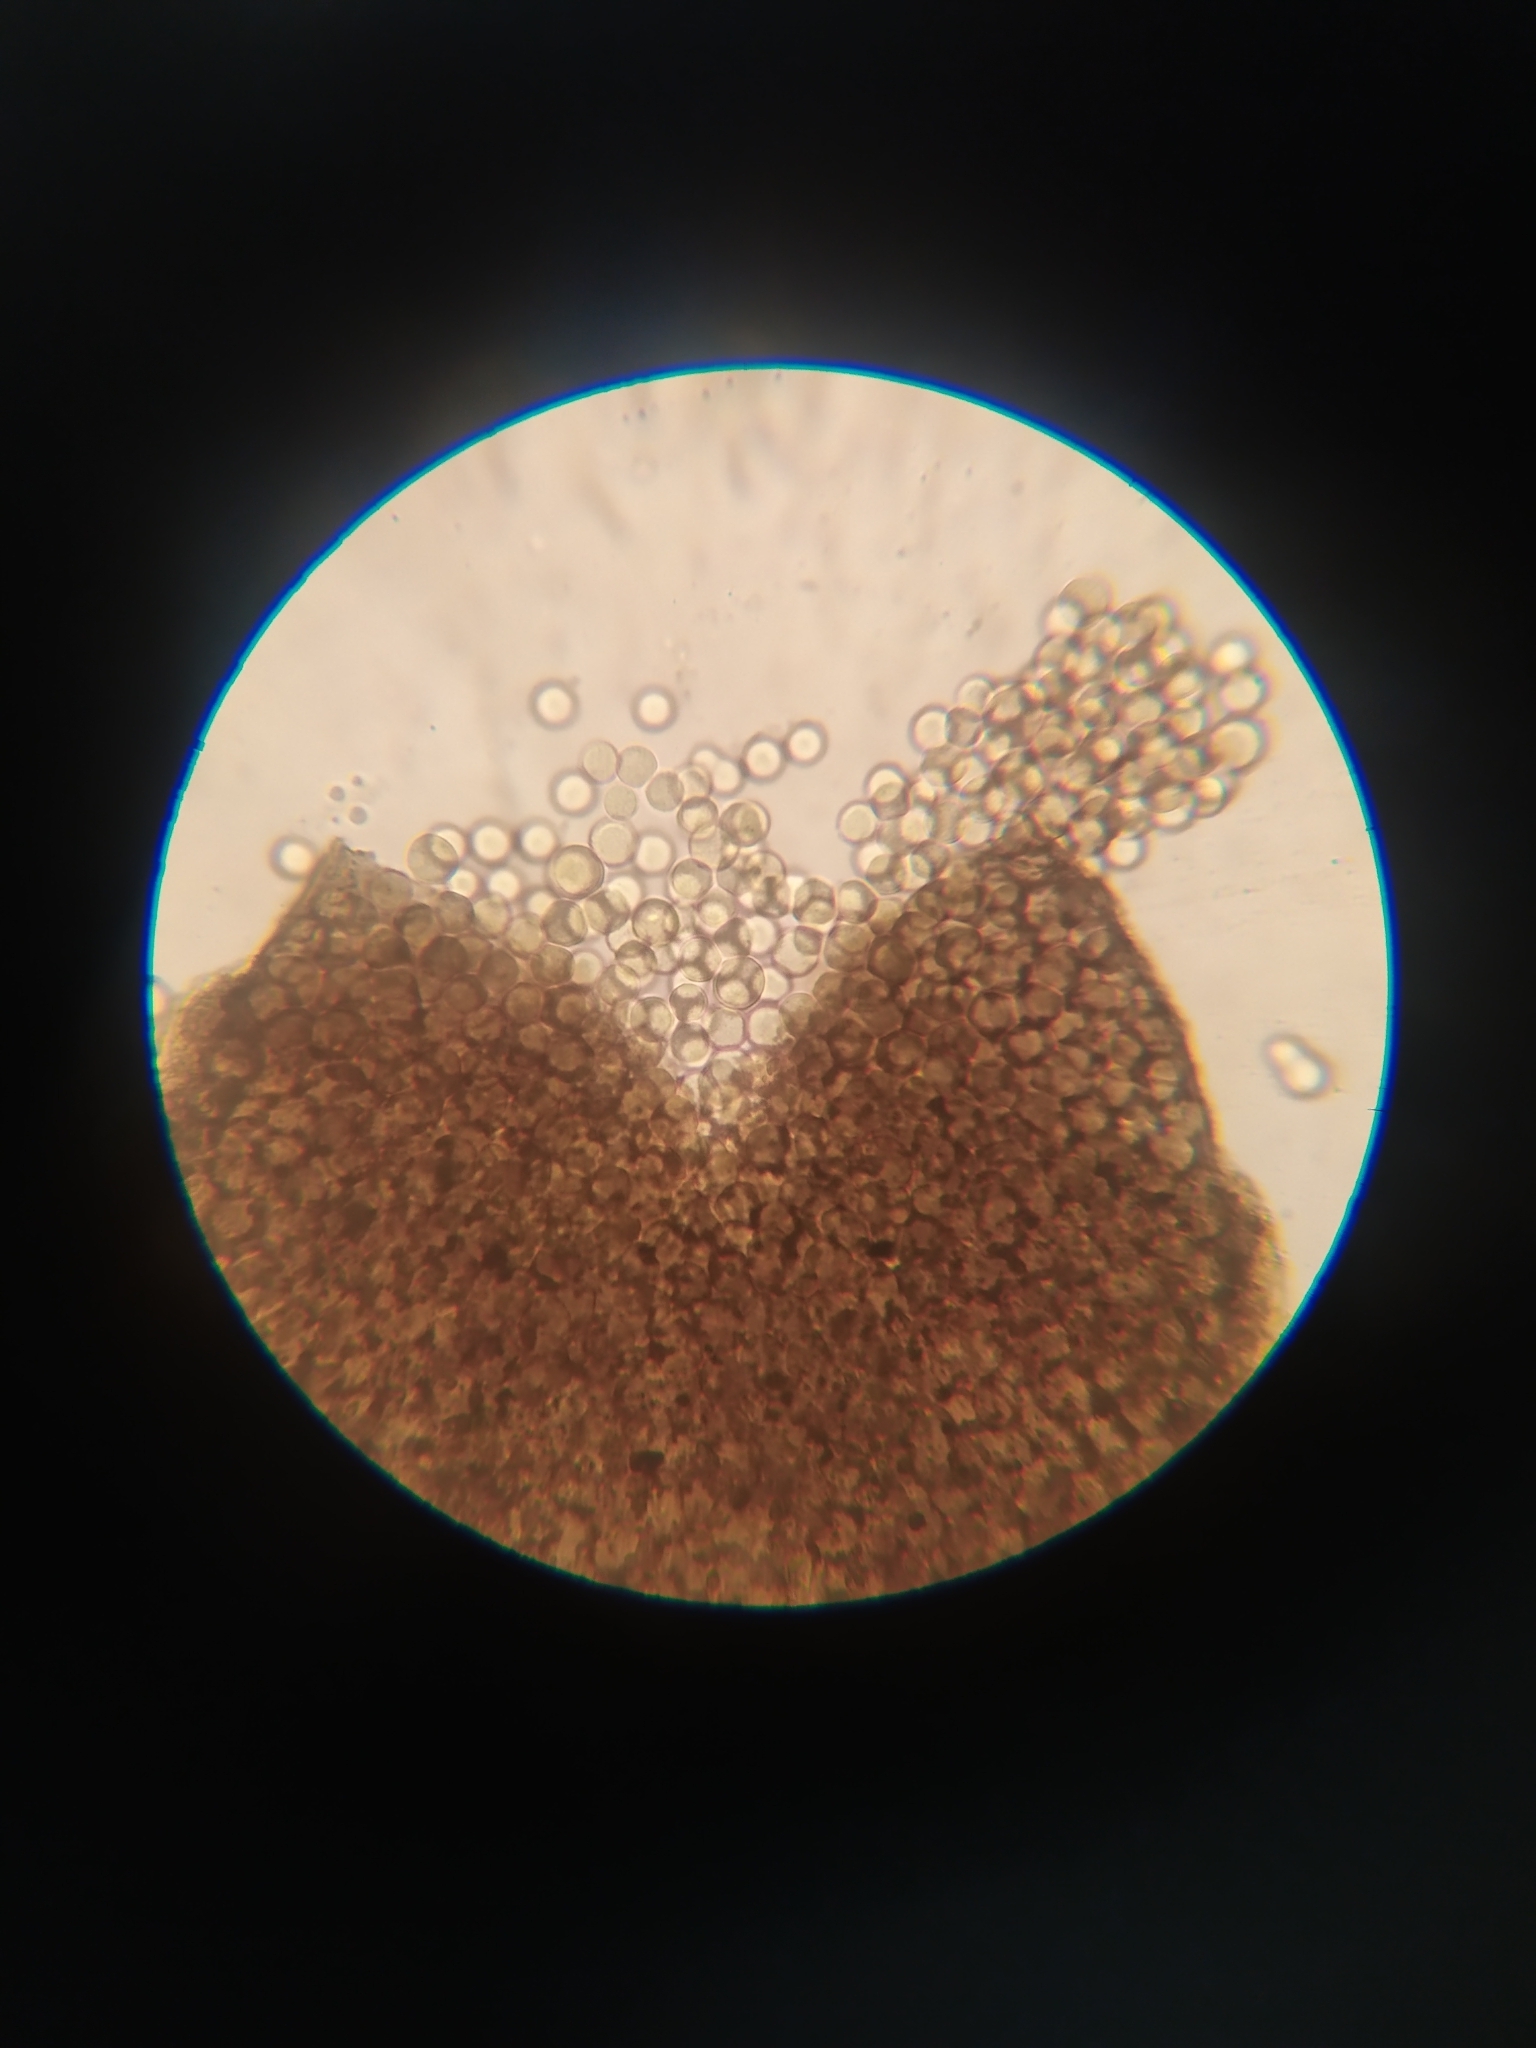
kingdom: Protozoa
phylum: Mycetozoa
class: Myxomycetes
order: Cribrariales
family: Liceaceae
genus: Licea
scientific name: Licea operculata
